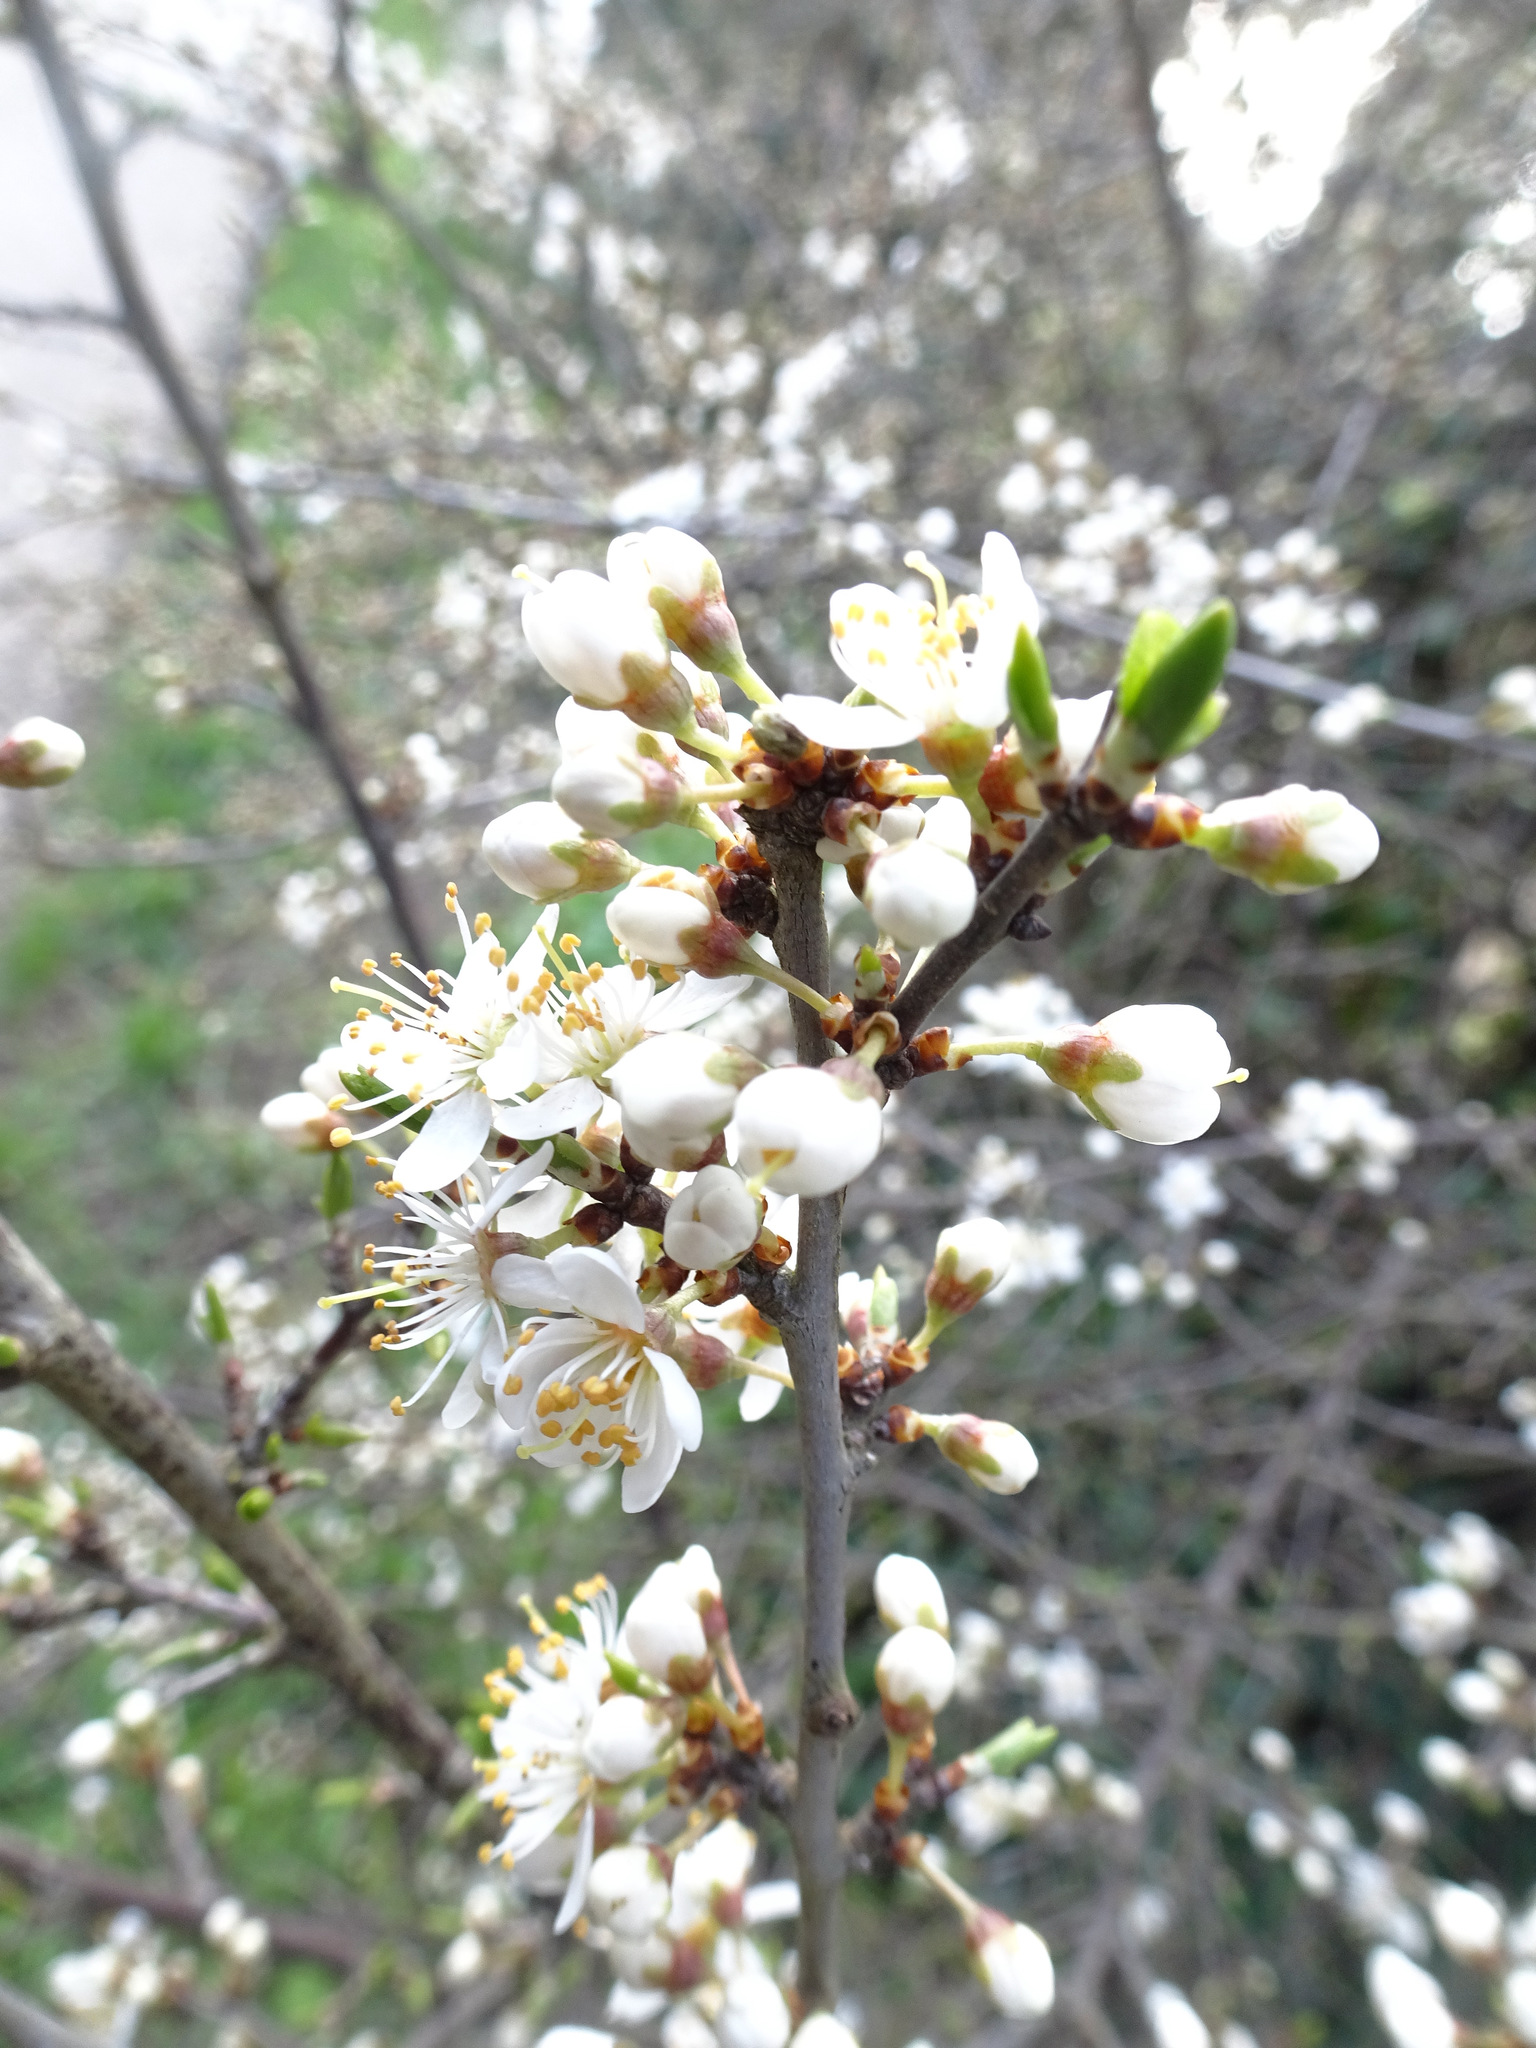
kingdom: Plantae
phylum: Tracheophyta
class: Magnoliopsida
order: Rosales
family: Rosaceae
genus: Prunus
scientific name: Prunus spinosa
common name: Blackthorn
